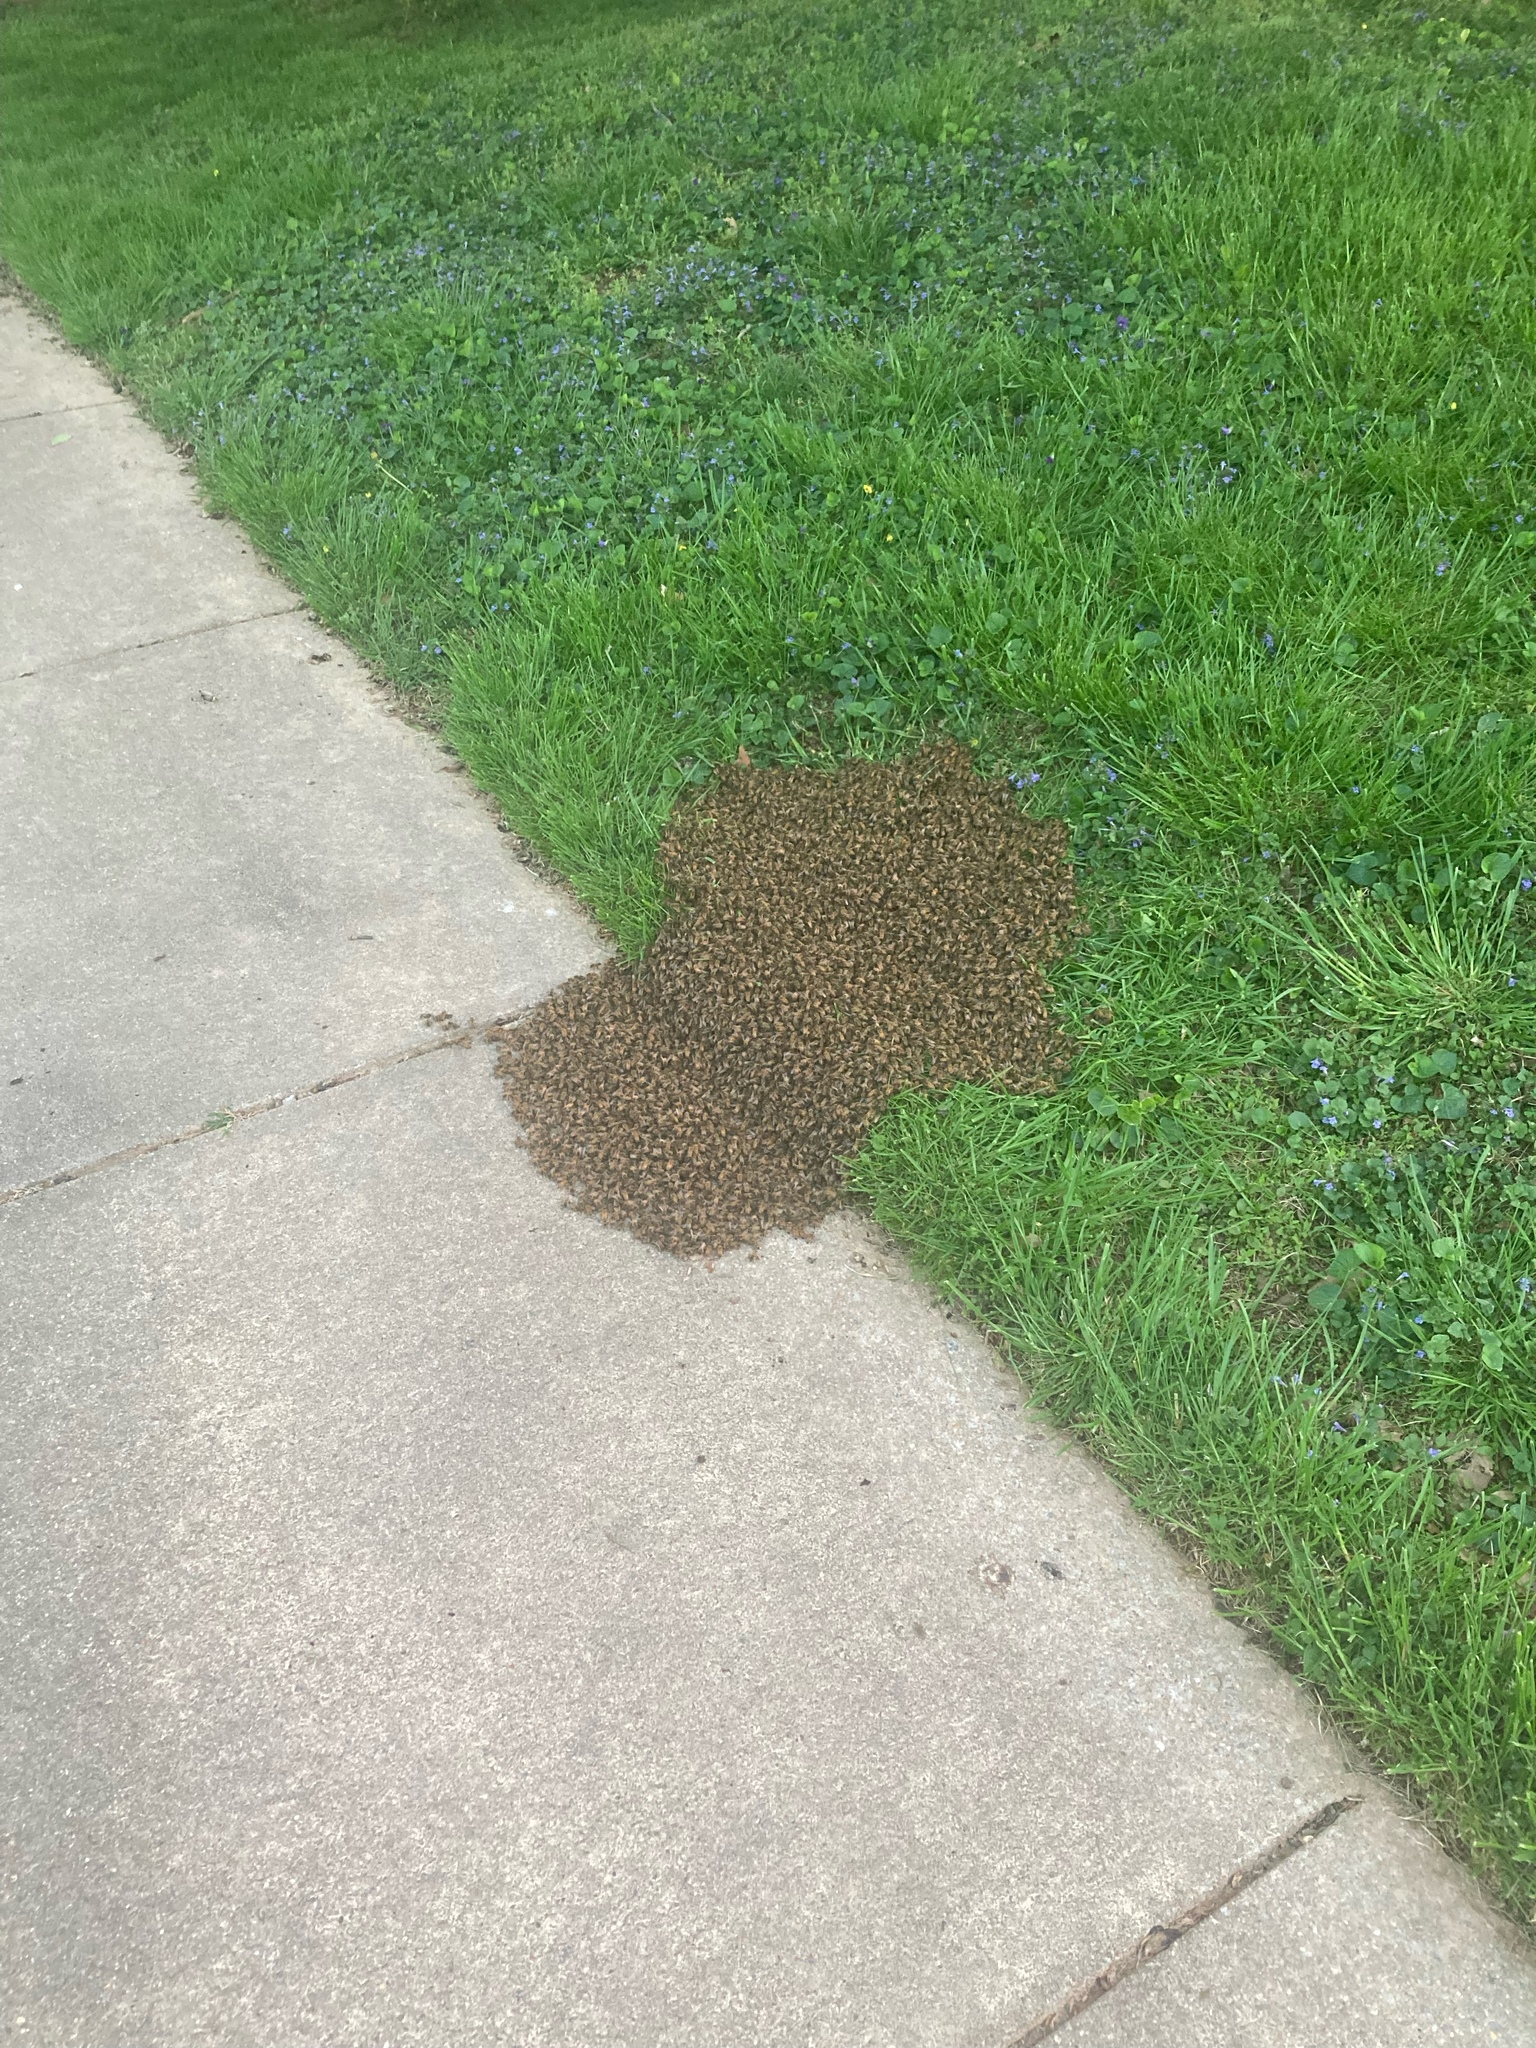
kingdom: Animalia
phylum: Arthropoda
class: Insecta
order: Hymenoptera
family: Apidae
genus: Apis
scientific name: Apis mellifera
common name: Honey bee
